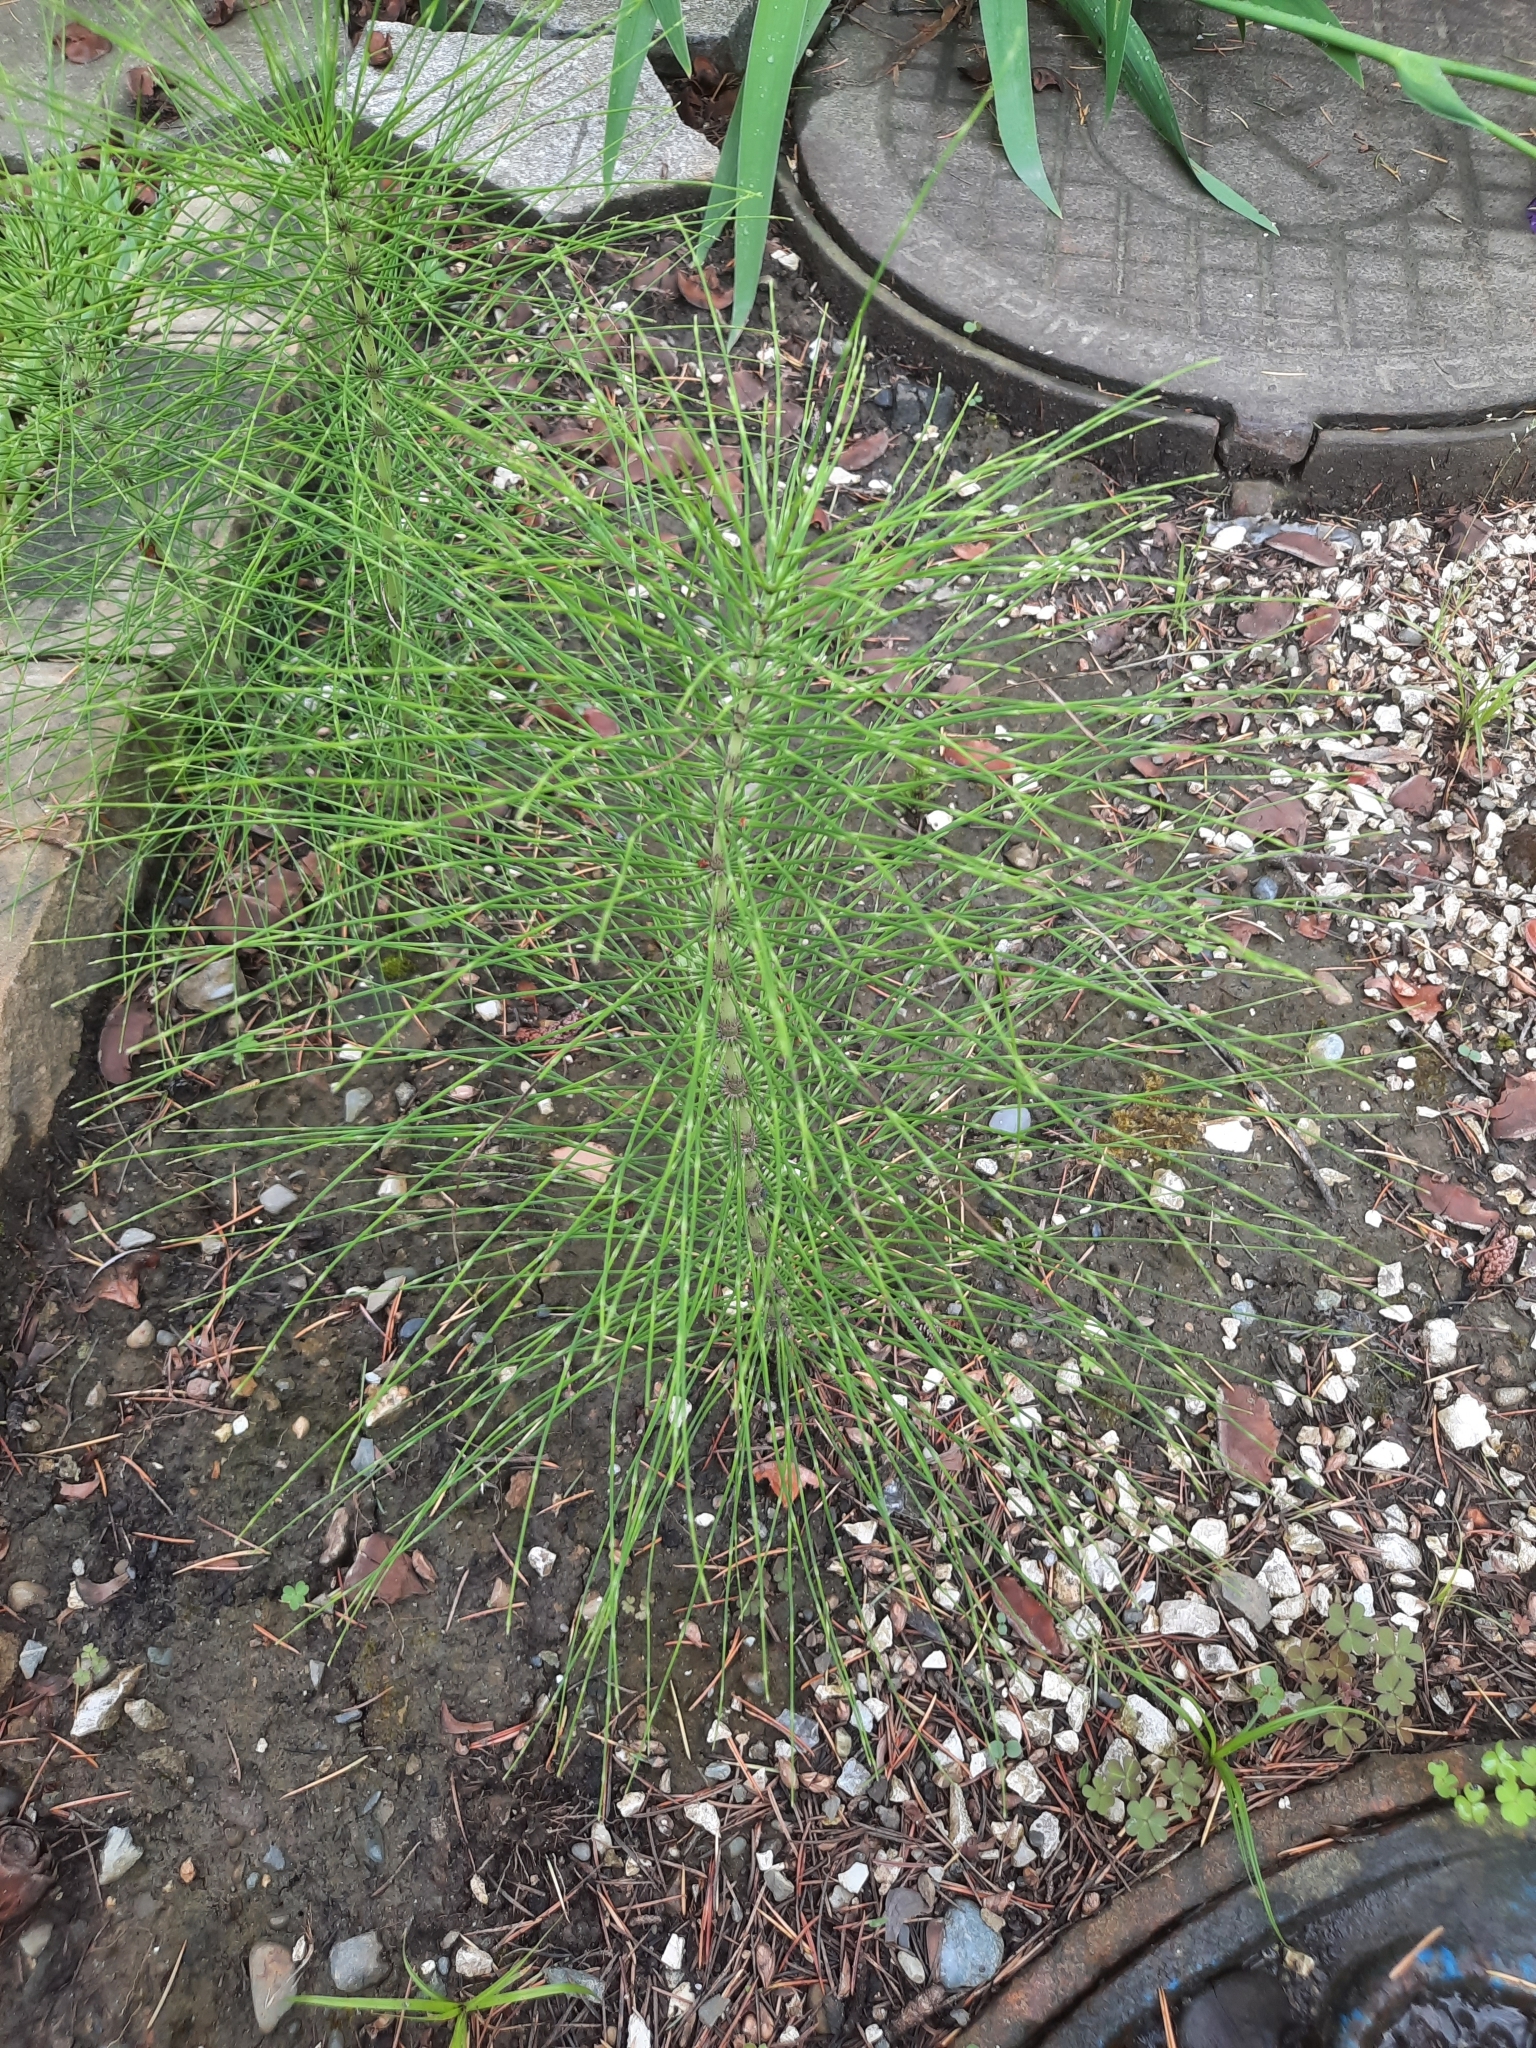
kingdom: Plantae
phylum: Tracheophyta
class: Polypodiopsida
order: Equisetales
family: Equisetaceae
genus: Equisetum
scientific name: Equisetum telmateia
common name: Great horsetail
